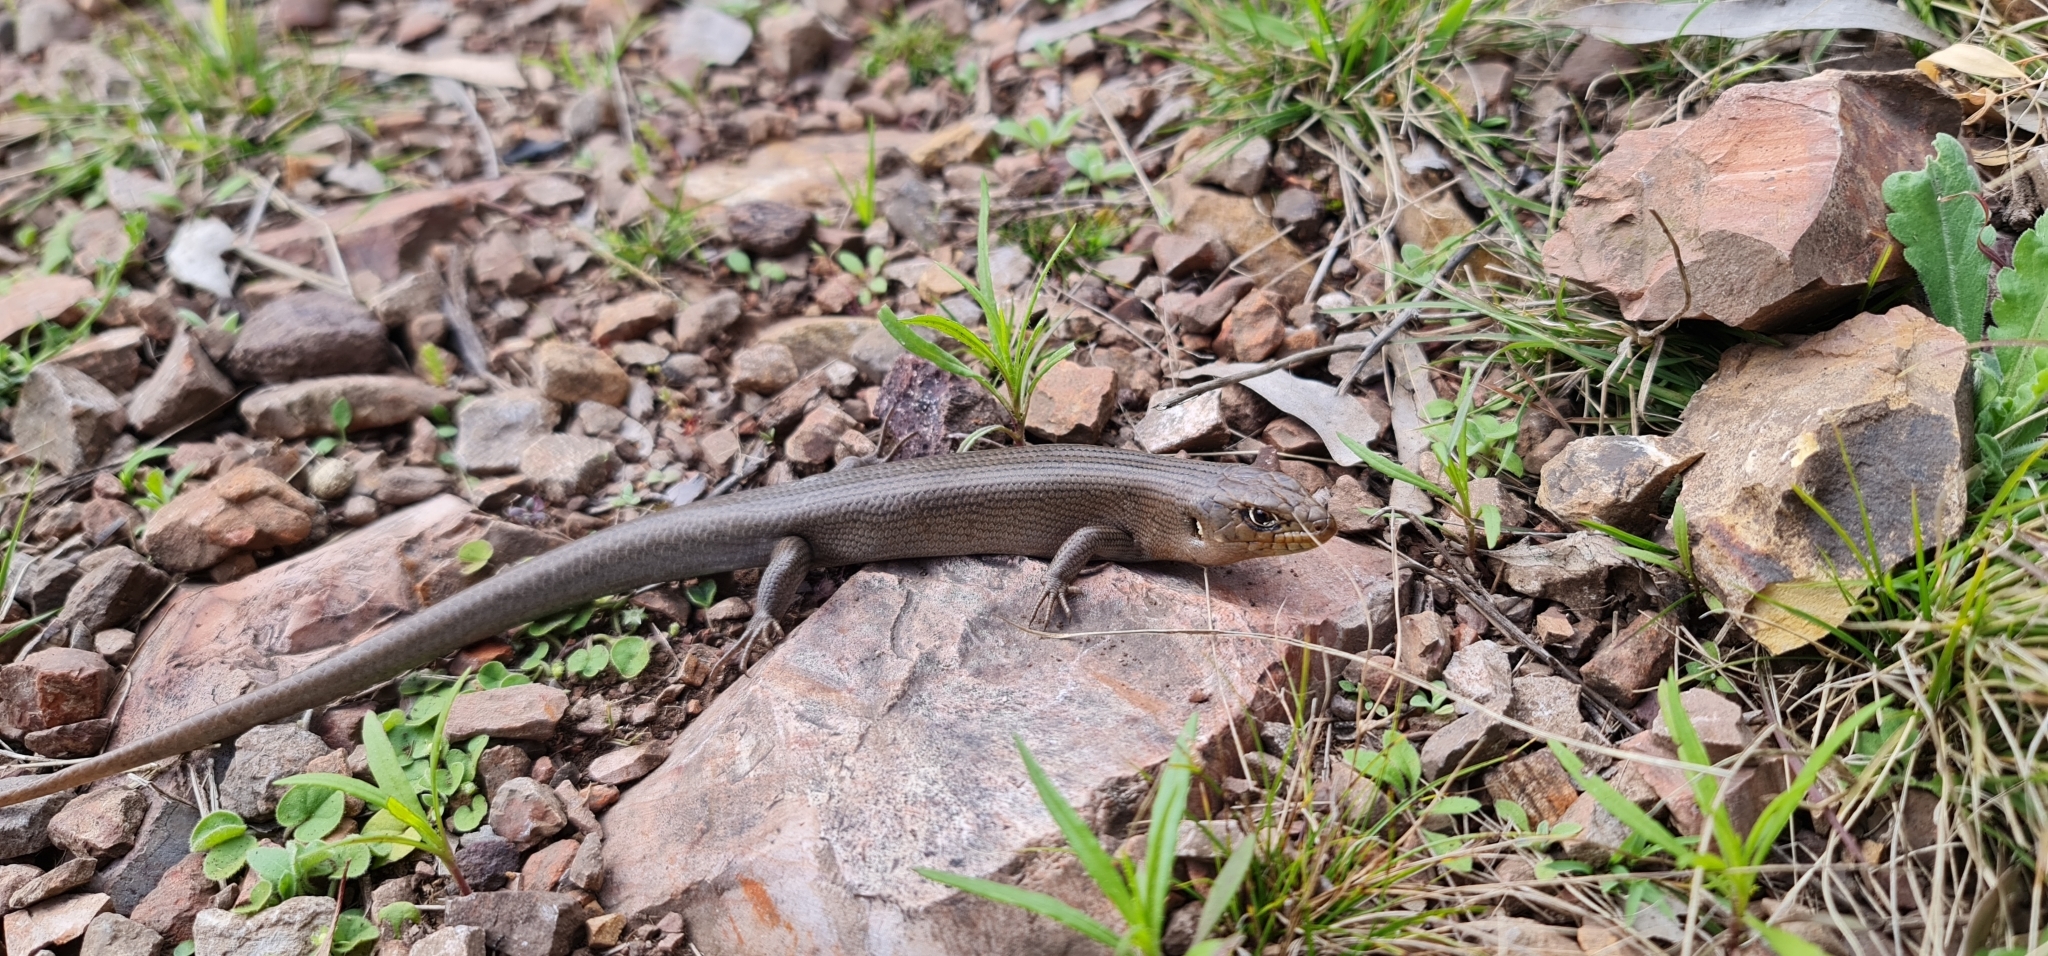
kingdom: Animalia
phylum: Chordata
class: Squamata
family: Scincidae
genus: Liopholis
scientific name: Liopholis modesta
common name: Eastern ranges rock-skink
